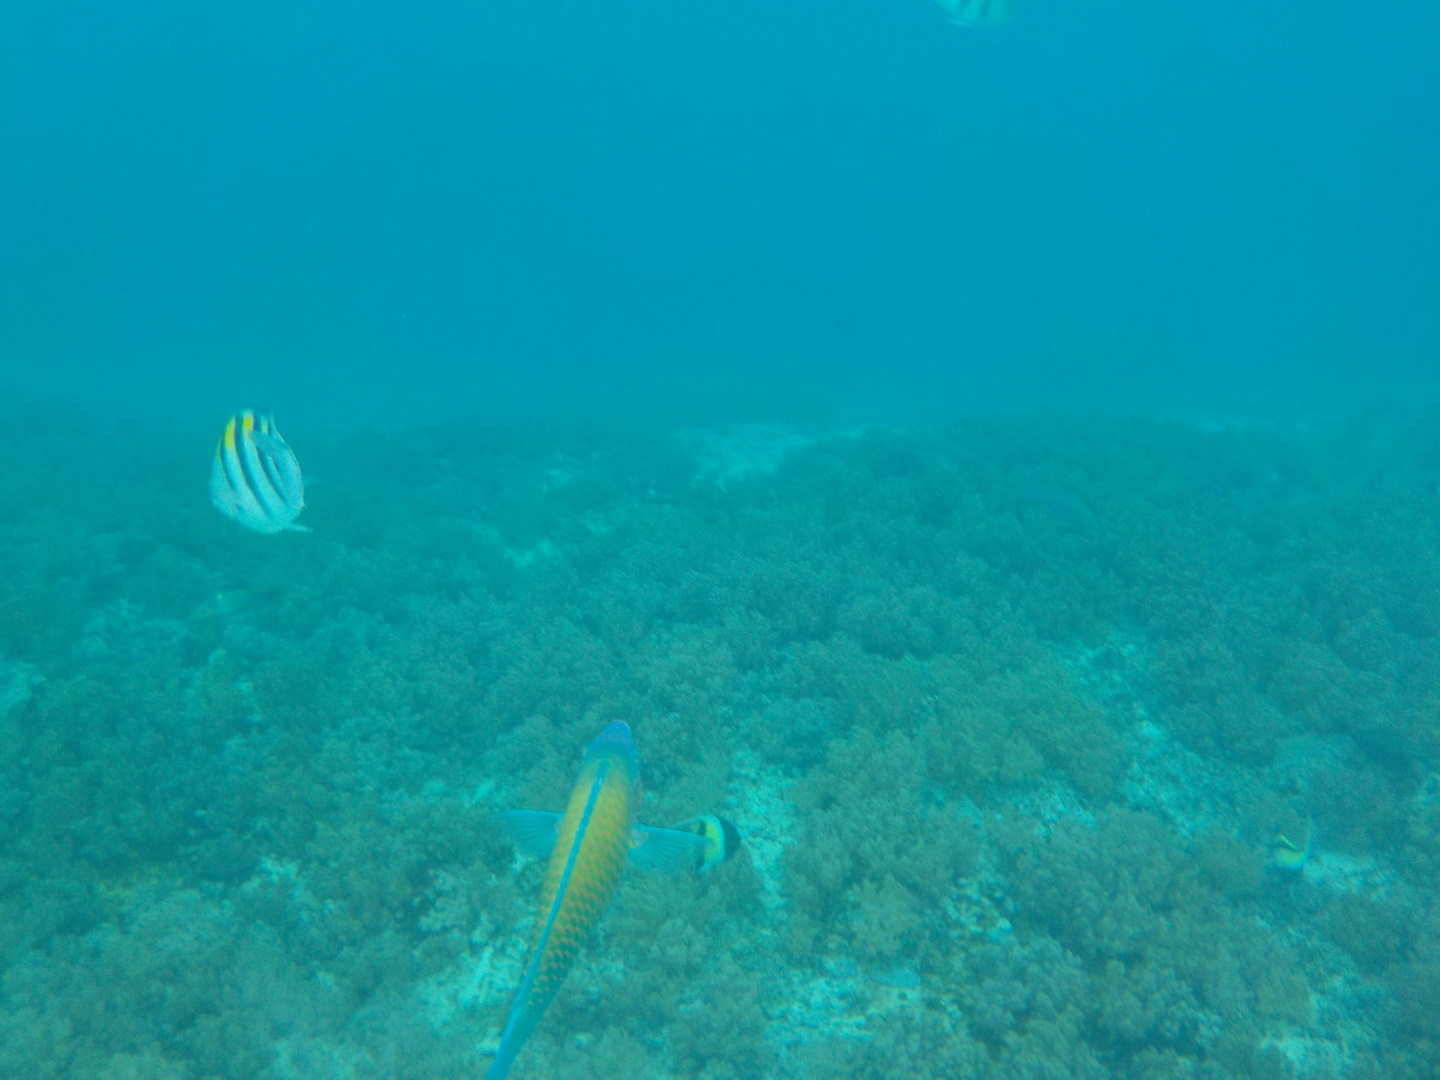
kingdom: Animalia
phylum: Chordata
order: Perciformes
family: Scaridae
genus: Scarus
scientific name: Scarus psittacus
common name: Palenose parrotfish
